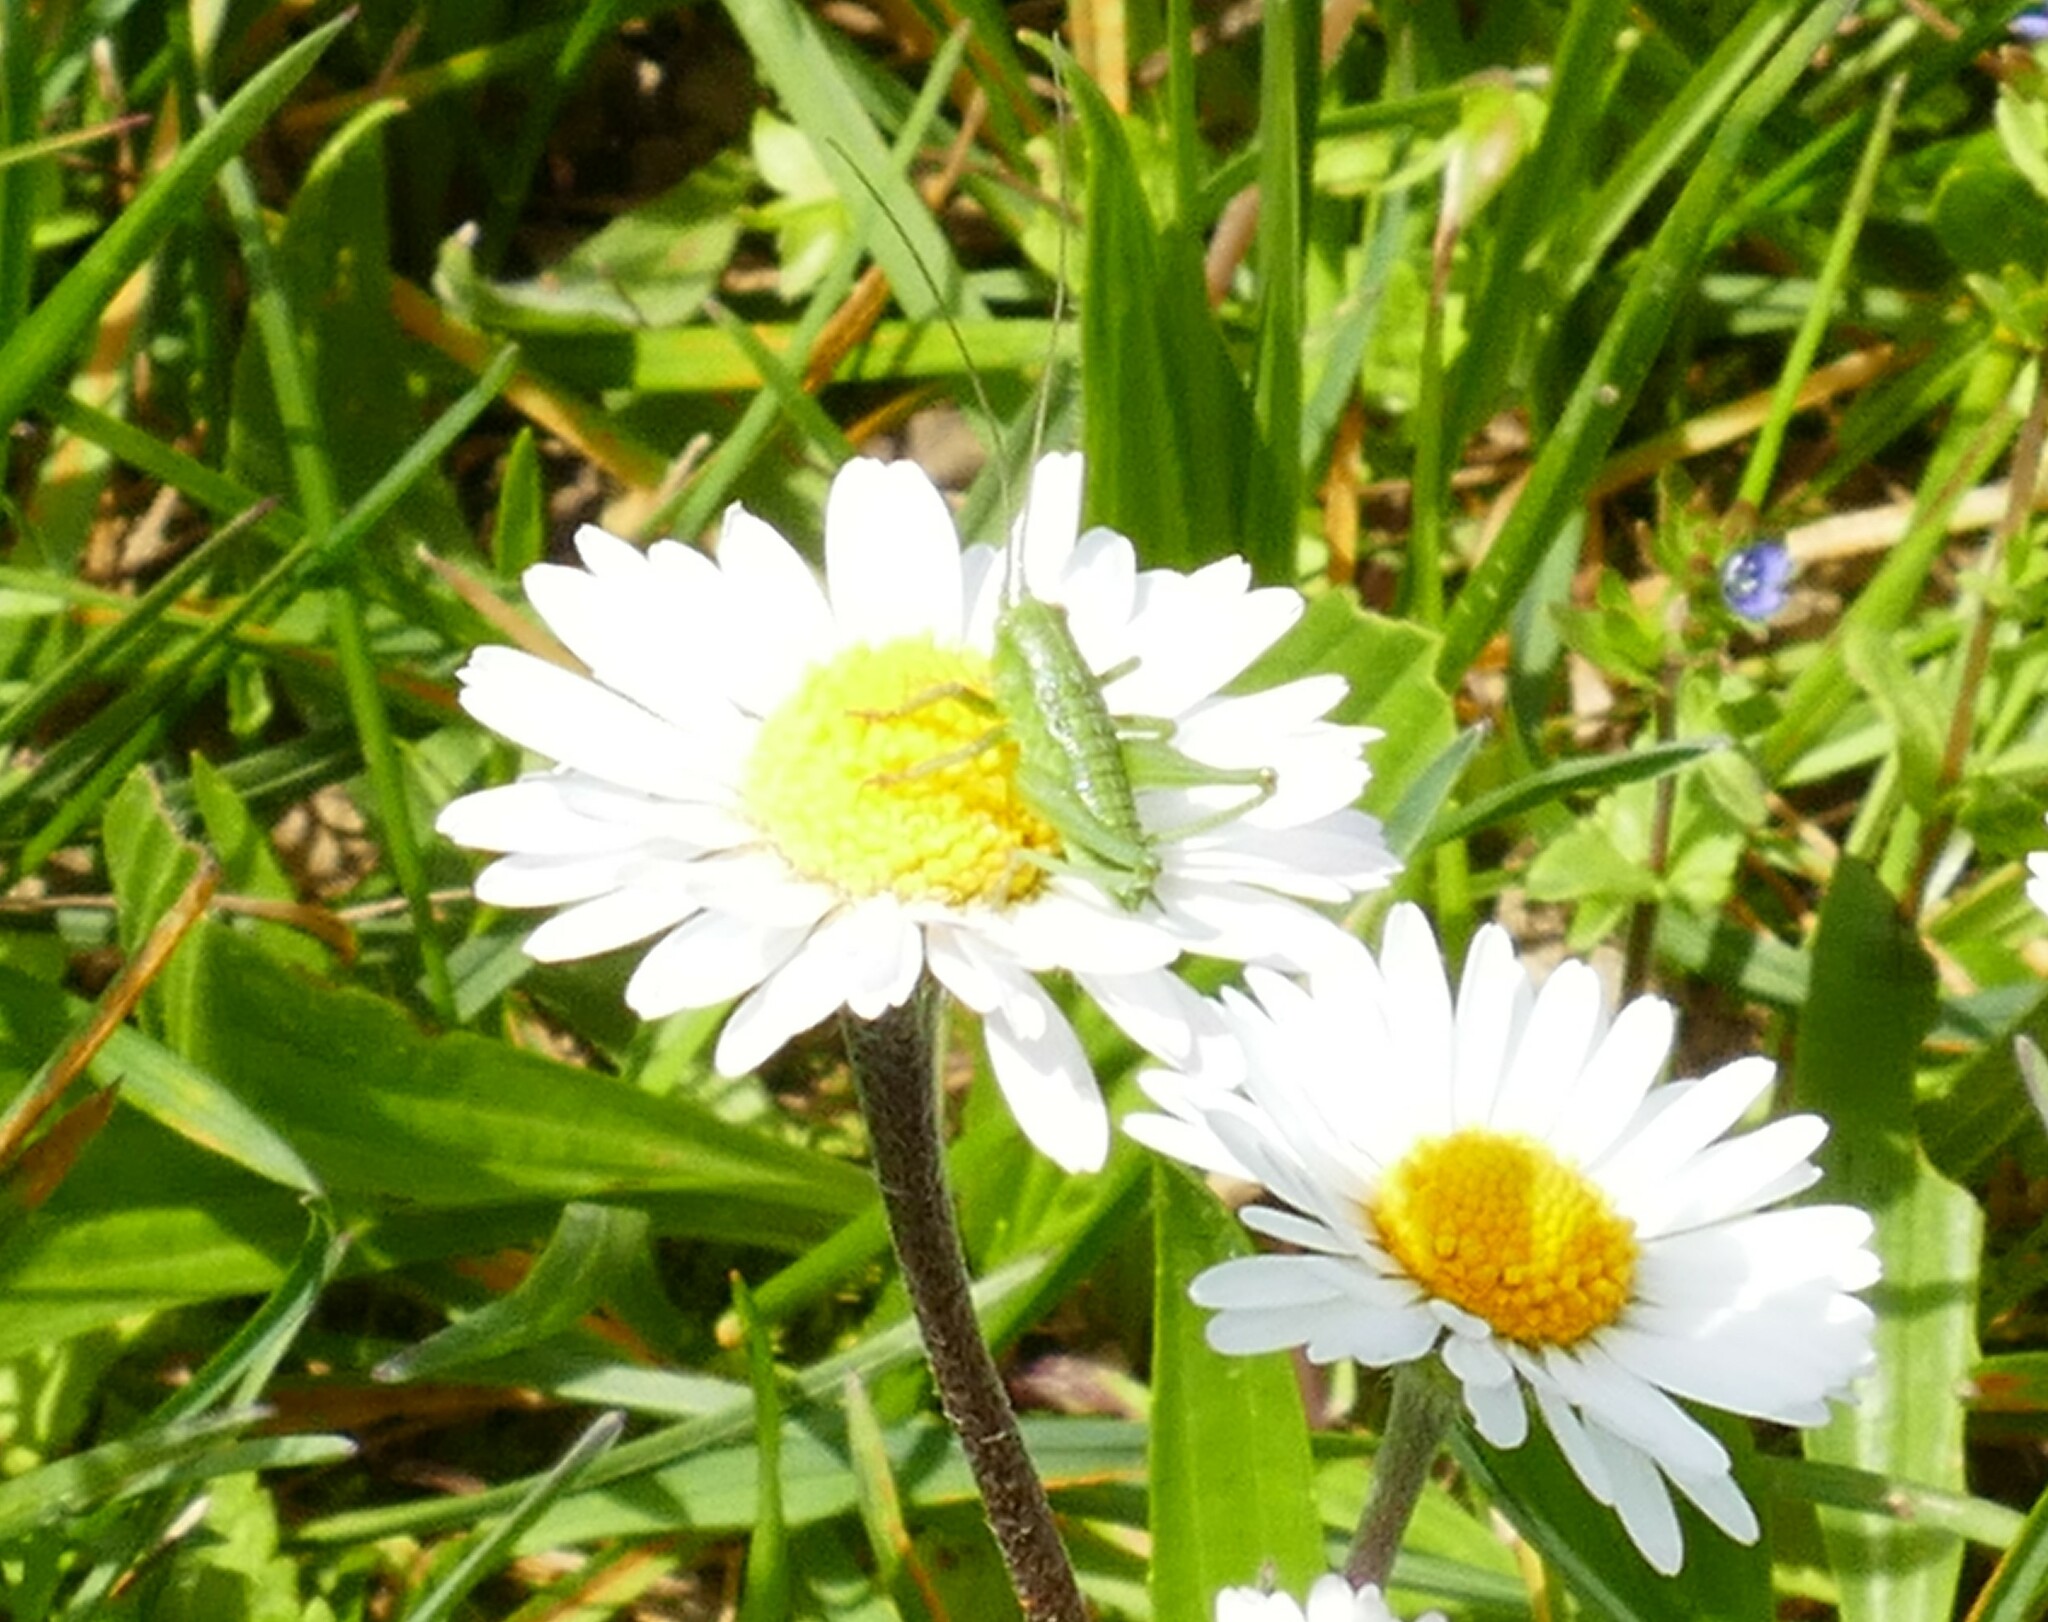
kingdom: Animalia
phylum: Arthropoda
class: Insecta
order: Orthoptera
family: Tettigoniidae
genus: Tettigonia
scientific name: Tettigonia viridissima
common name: Great green bush-cricket
